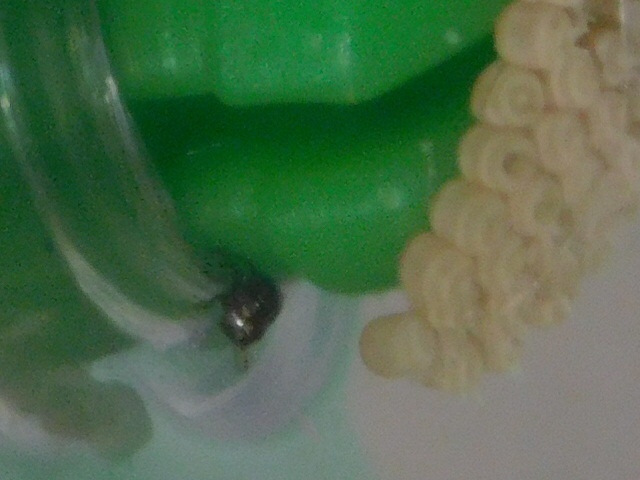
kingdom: Animalia
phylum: Arthropoda
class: Insecta
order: Hemiptera
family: Pentatomidae
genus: Thyanta
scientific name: Thyanta perditor
